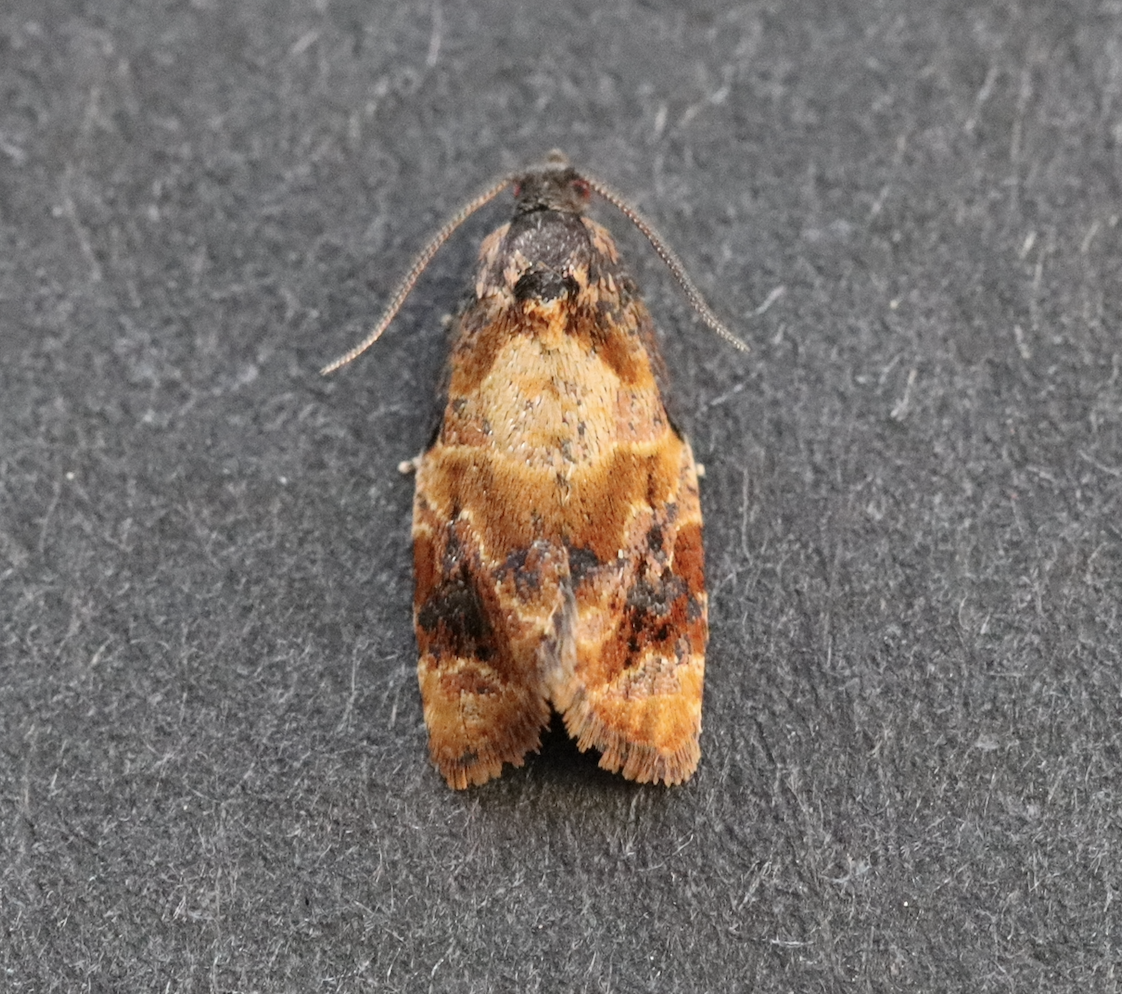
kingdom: Animalia
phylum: Arthropoda
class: Insecta
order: Lepidoptera
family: Tortricidae
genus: Ditula
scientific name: Ditula angustiorana
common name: Red-barred tortrix
